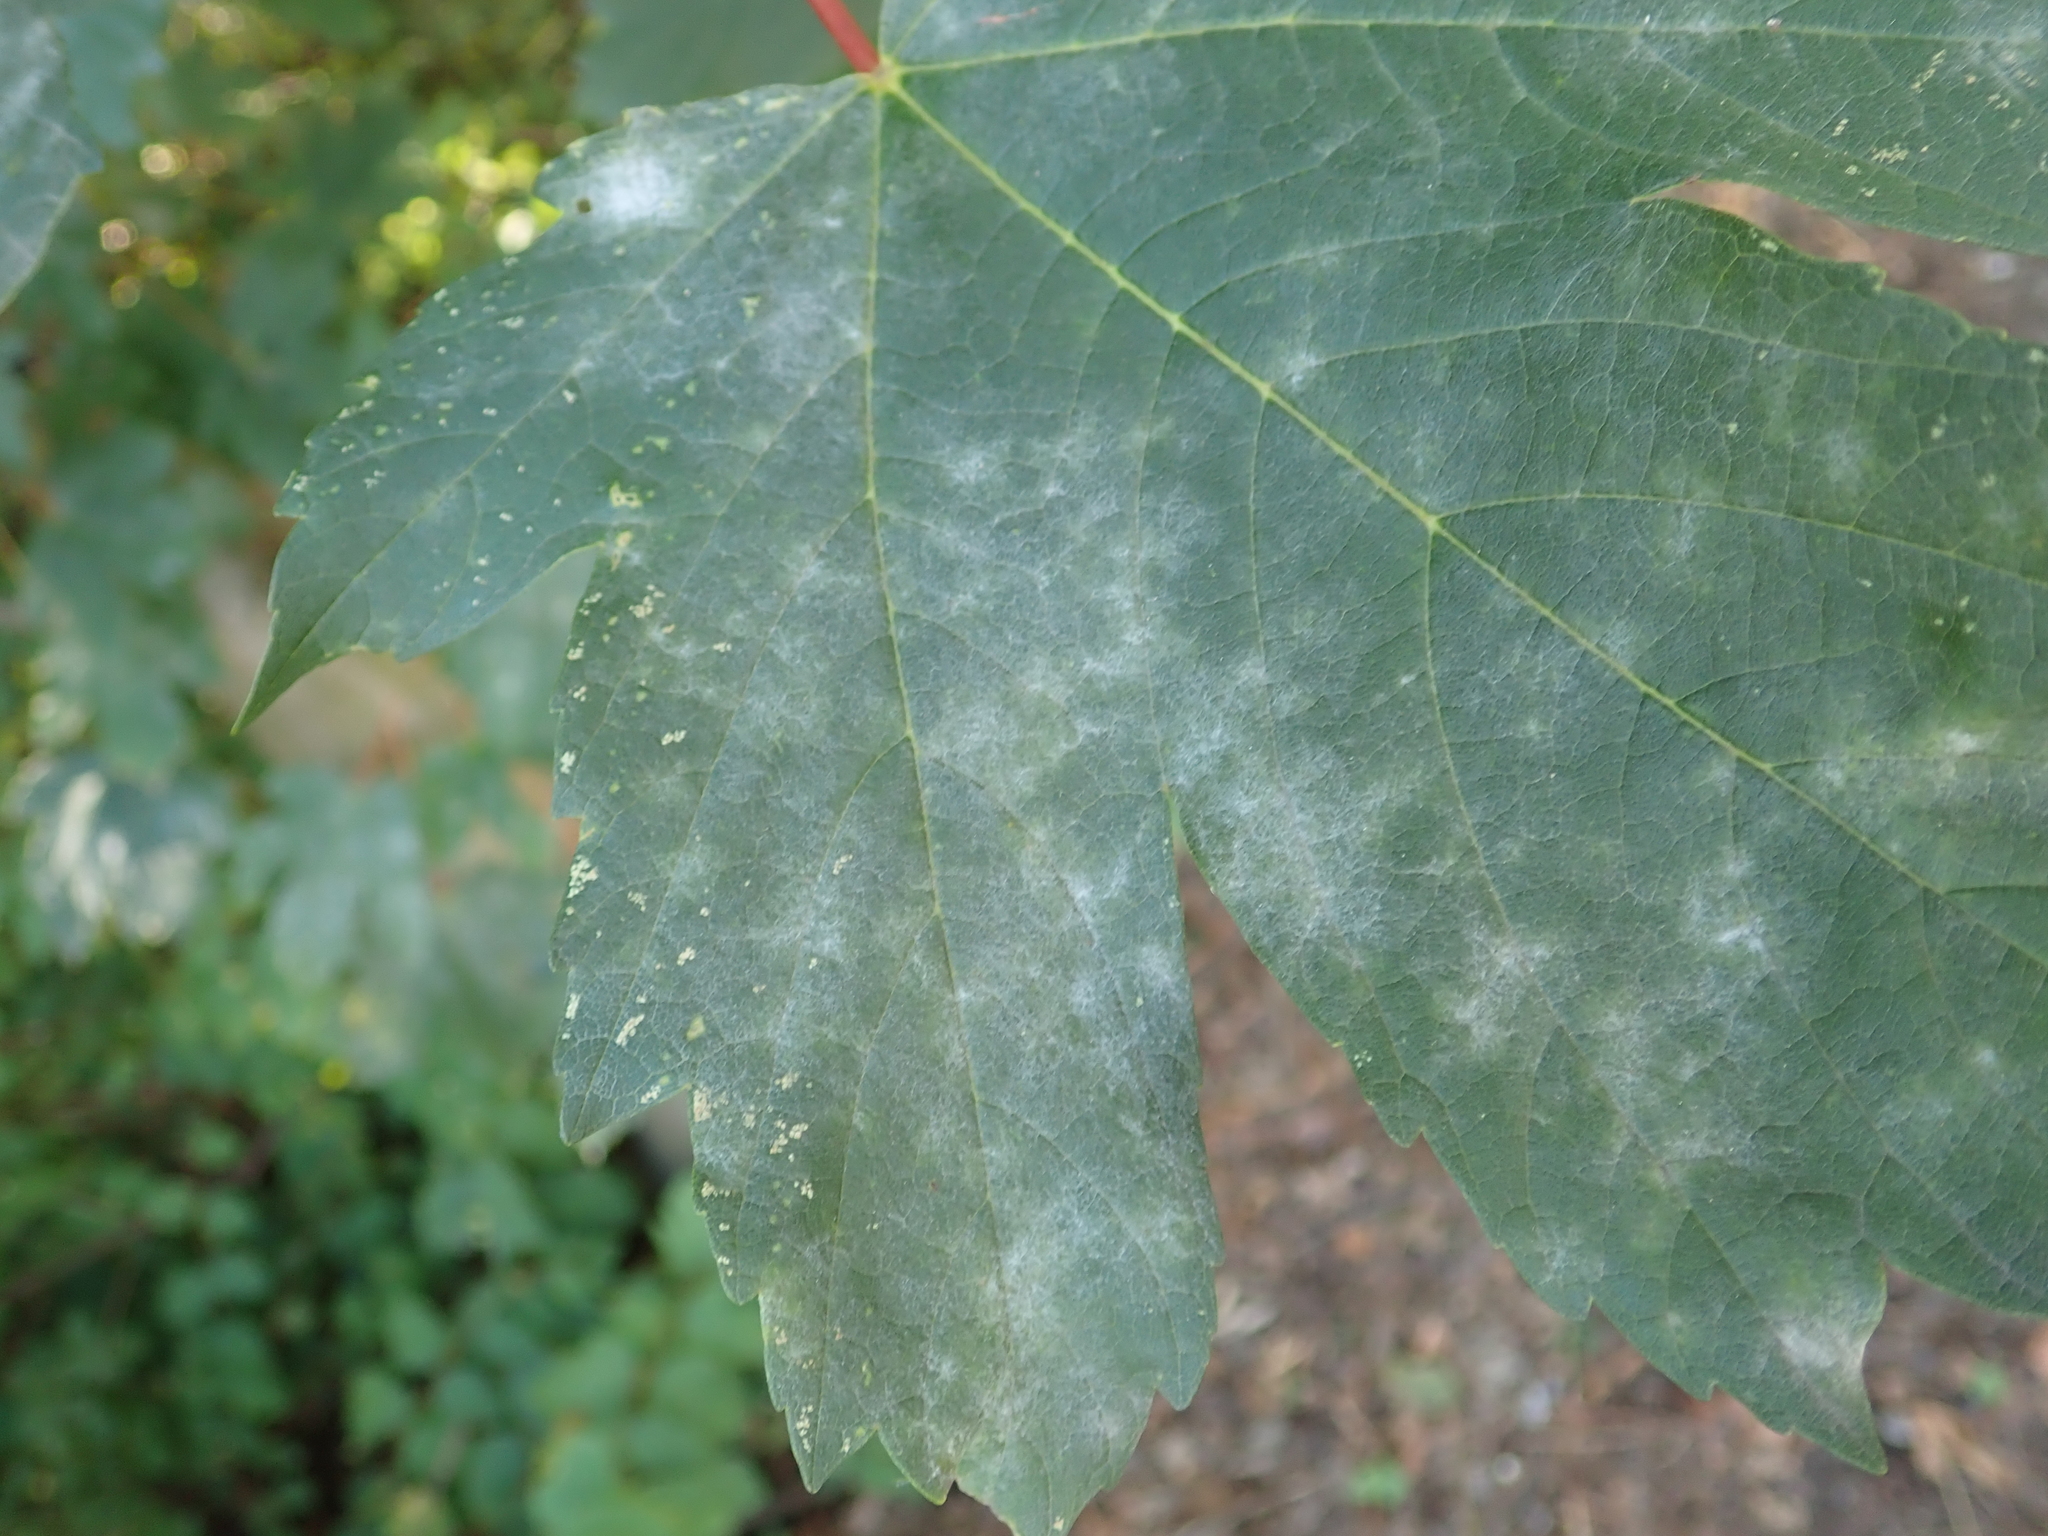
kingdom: Fungi
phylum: Ascomycota
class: Leotiomycetes
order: Helotiales
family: Erysiphaceae
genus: Sawadaea
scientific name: Sawadaea bicornis
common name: Maple mildew
